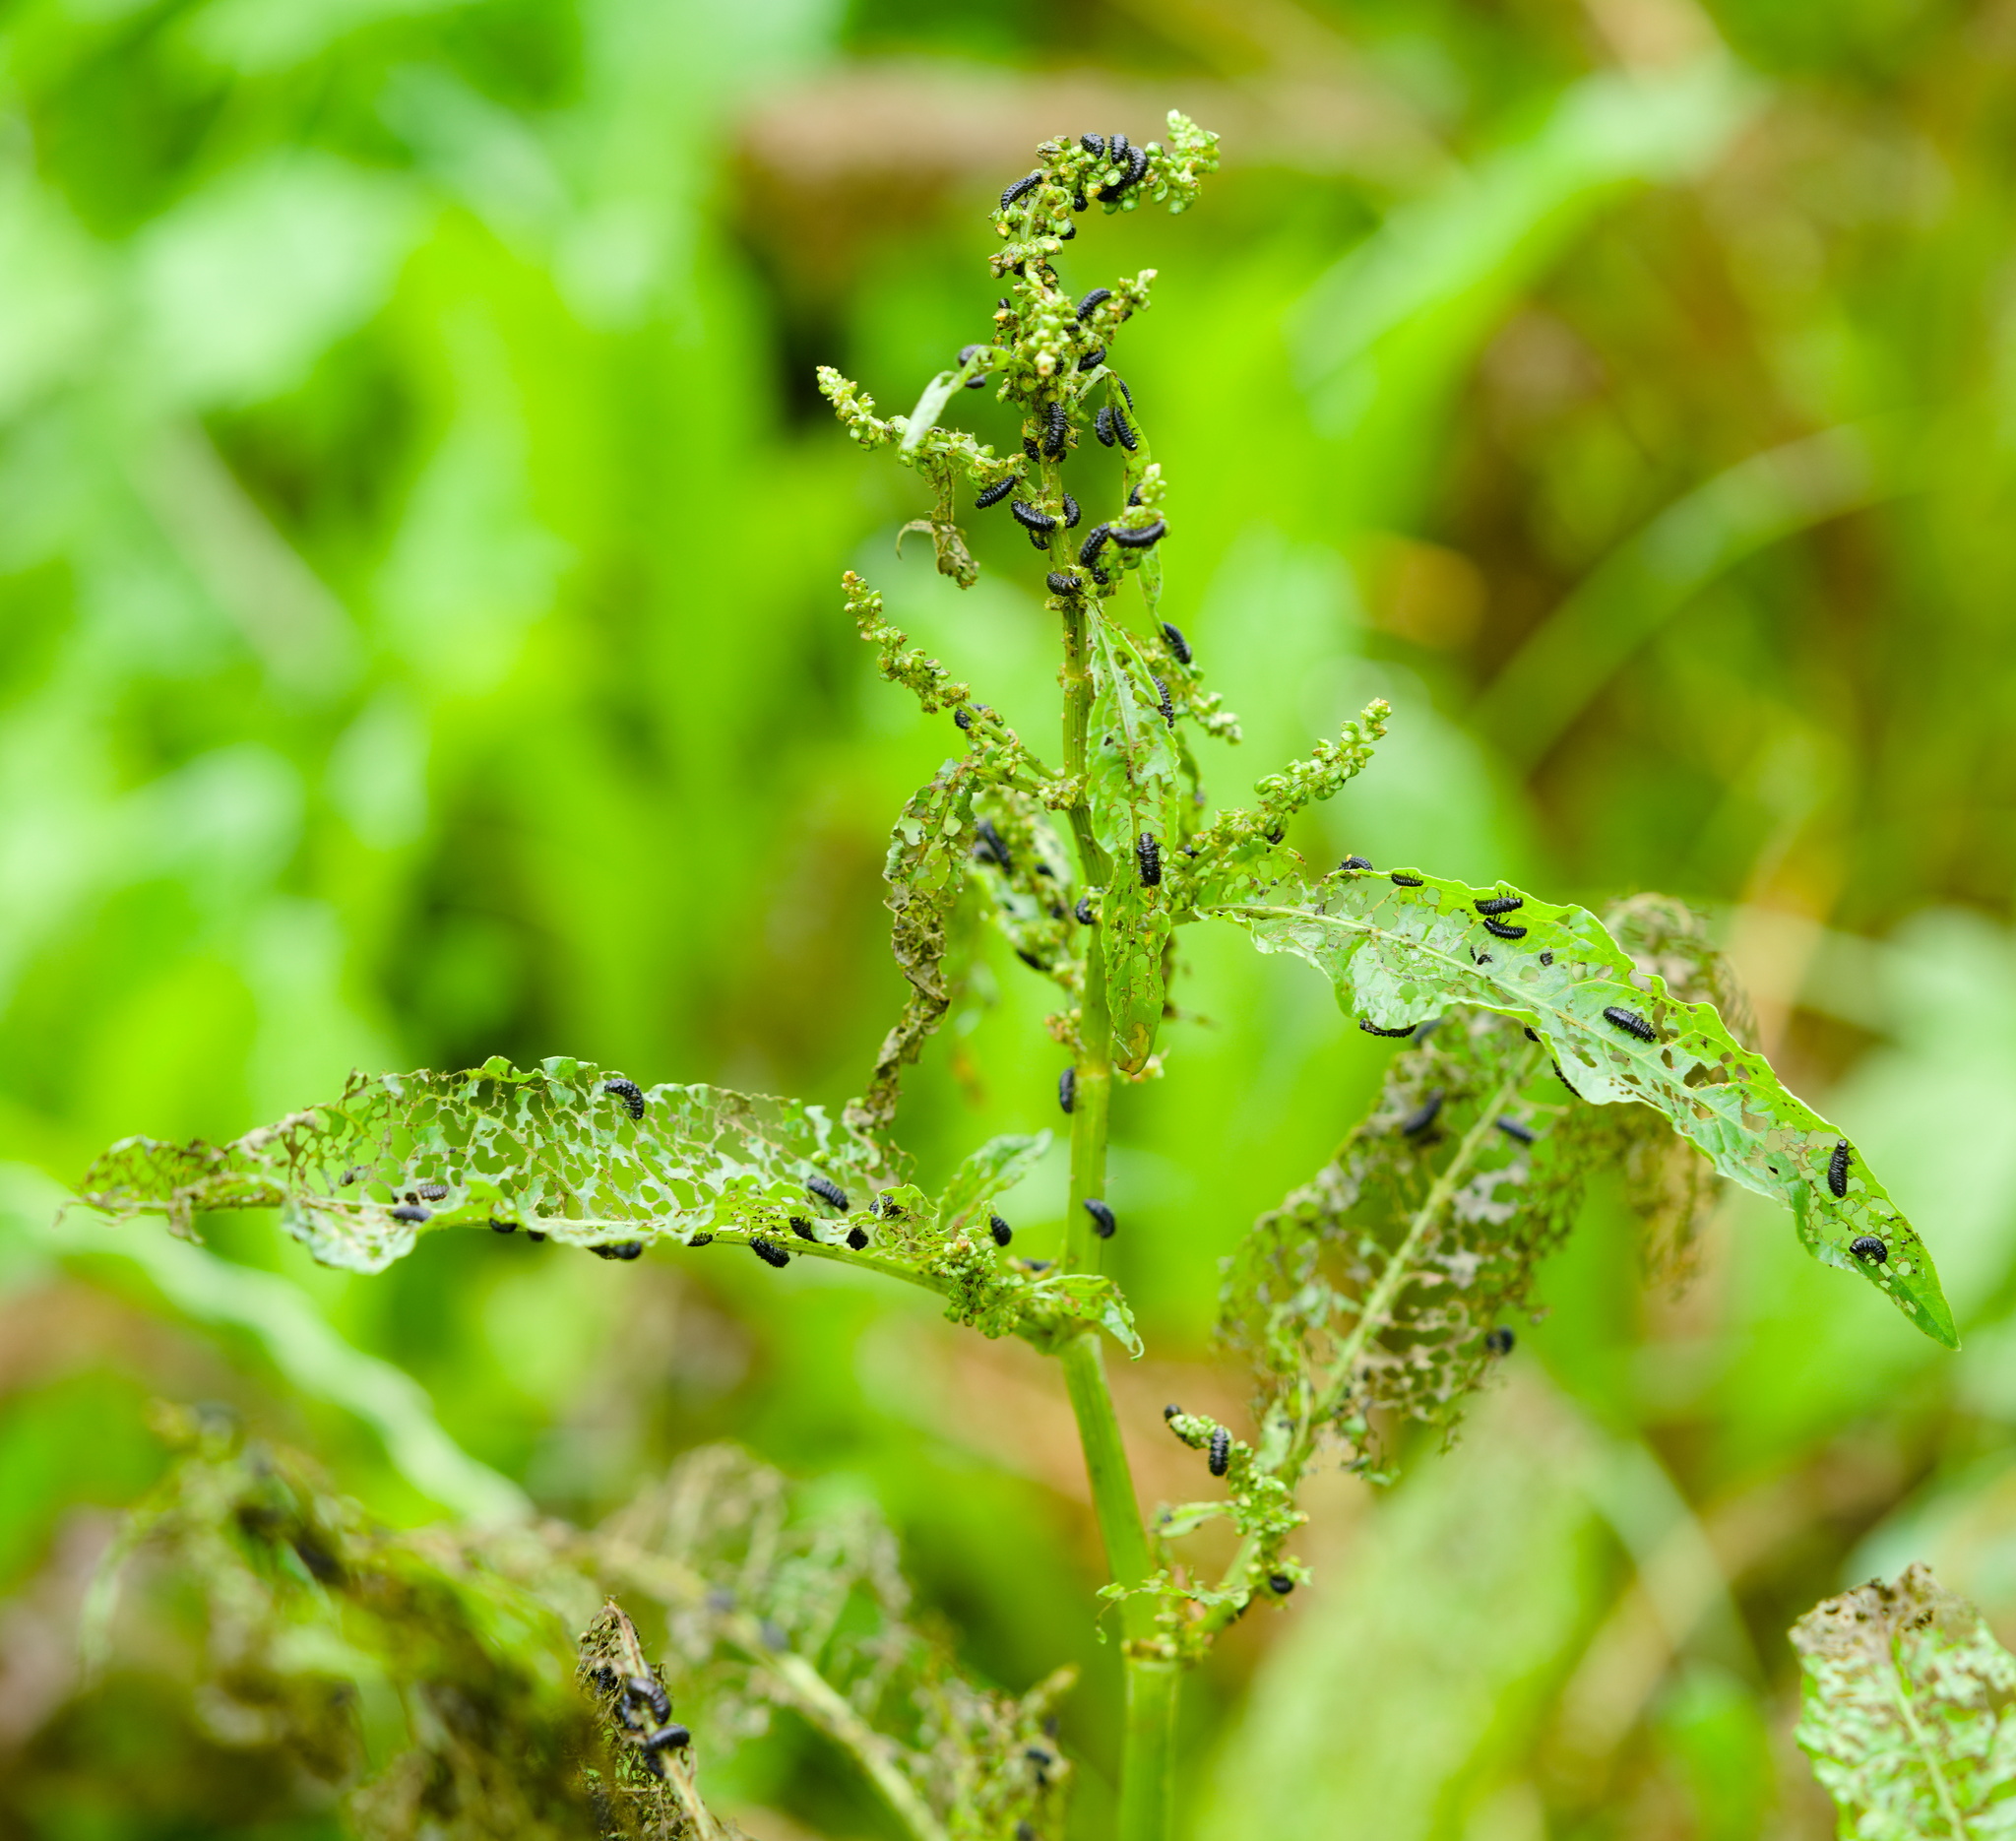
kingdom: Animalia
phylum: Arthropoda
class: Insecta
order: Coleoptera
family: Chrysomelidae
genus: Gastrophysa
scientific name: Gastrophysa viridula
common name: Green dock beetle
